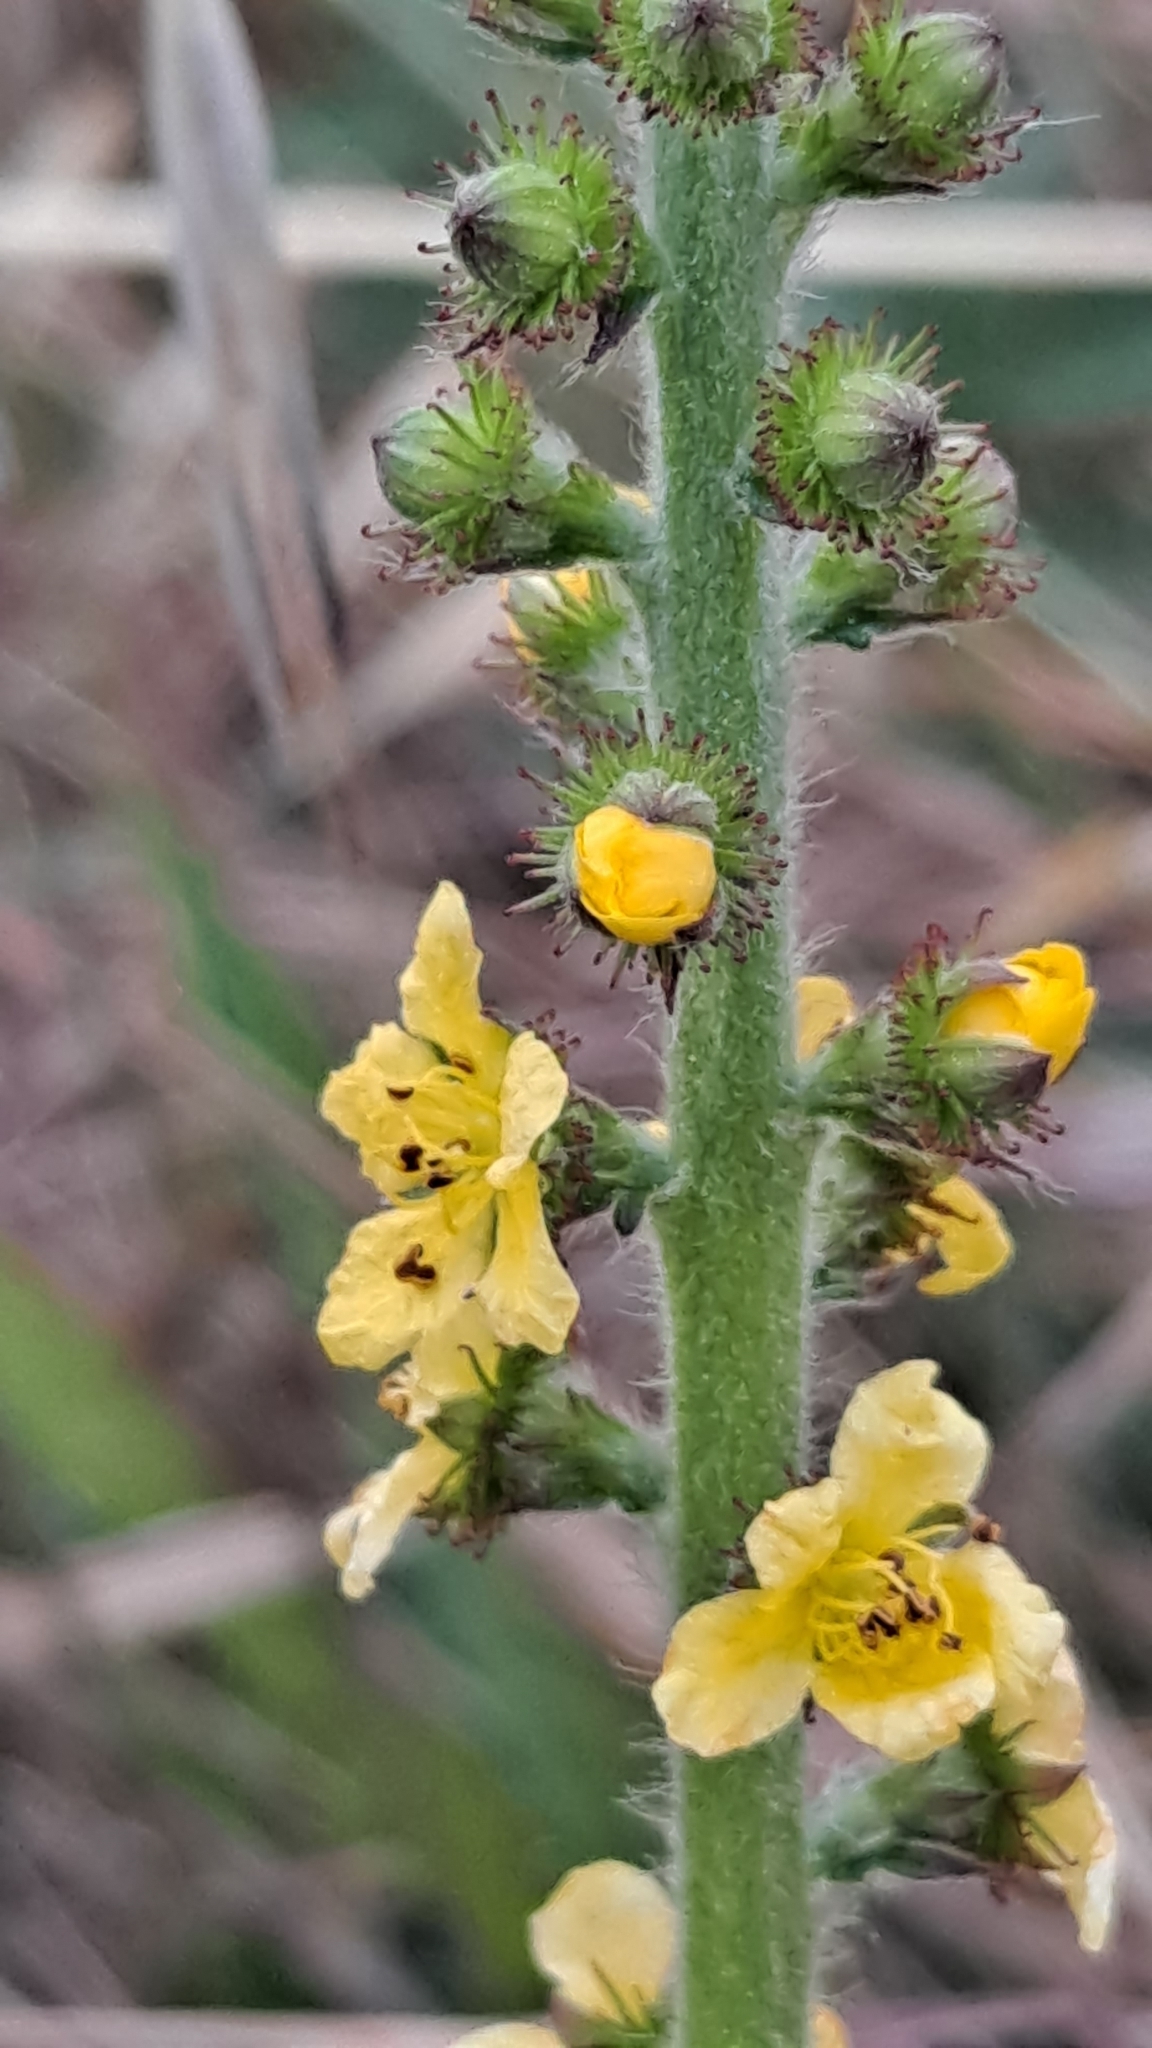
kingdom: Plantae
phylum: Tracheophyta
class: Magnoliopsida
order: Rosales
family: Rosaceae
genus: Agrimonia
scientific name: Agrimonia eupatoria
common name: Agrimony
